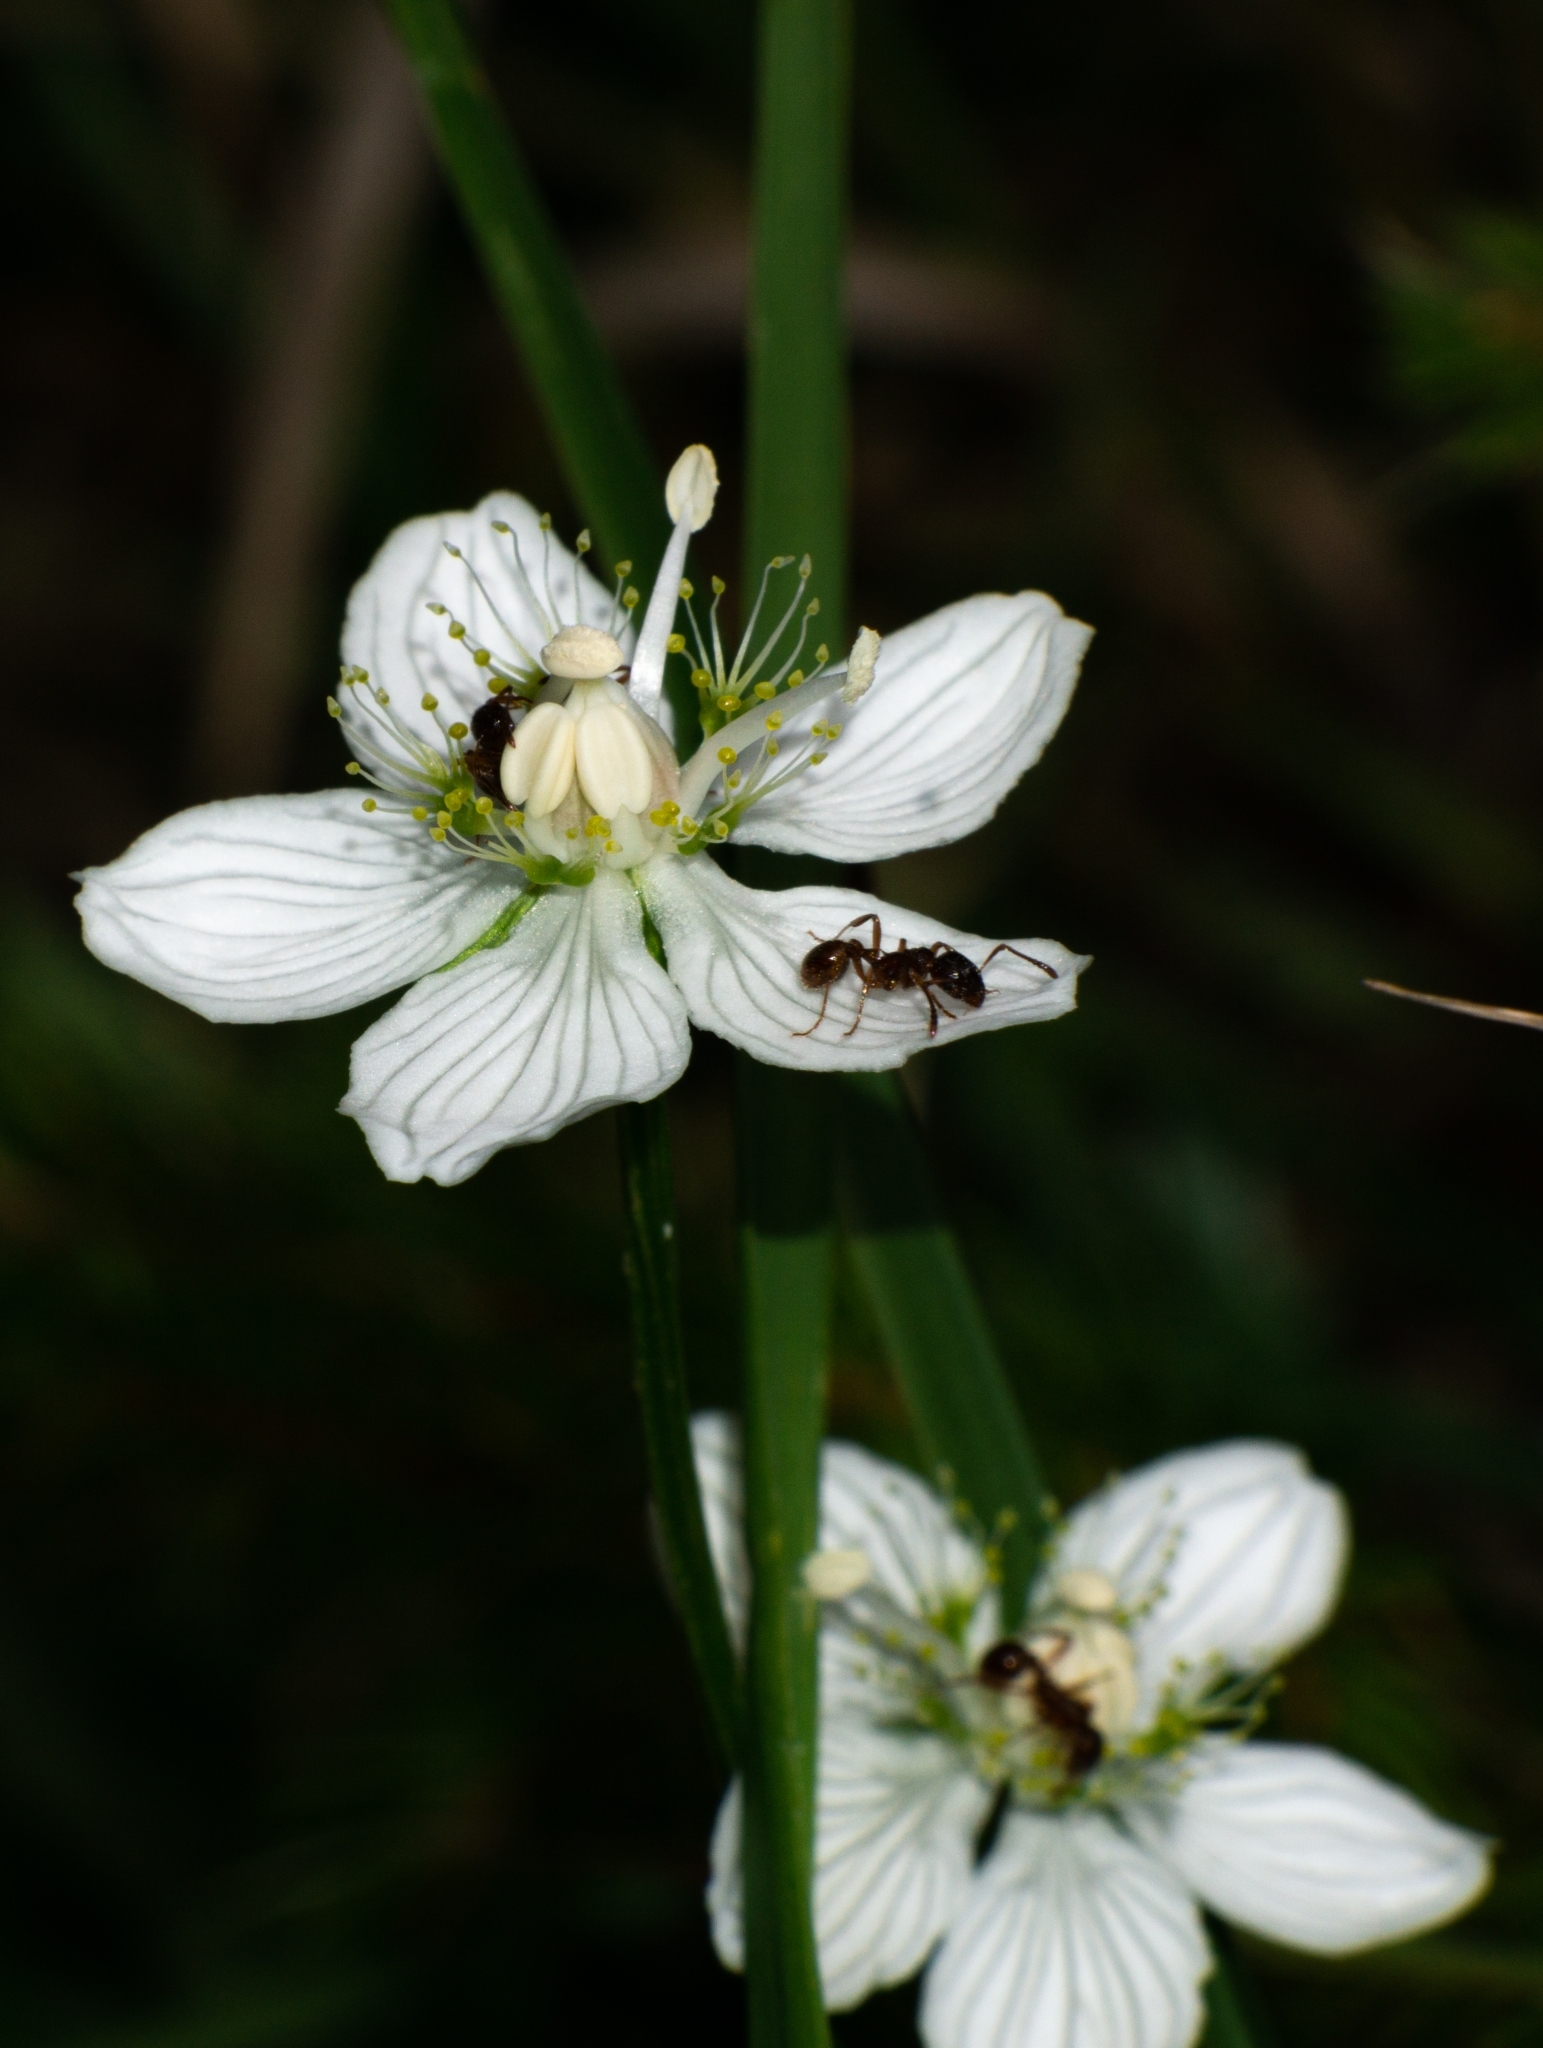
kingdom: Plantae
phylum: Tracheophyta
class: Magnoliopsida
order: Celastrales
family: Parnassiaceae
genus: Parnassia
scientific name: Parnassia palustris
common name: Grass-of-parnassus
